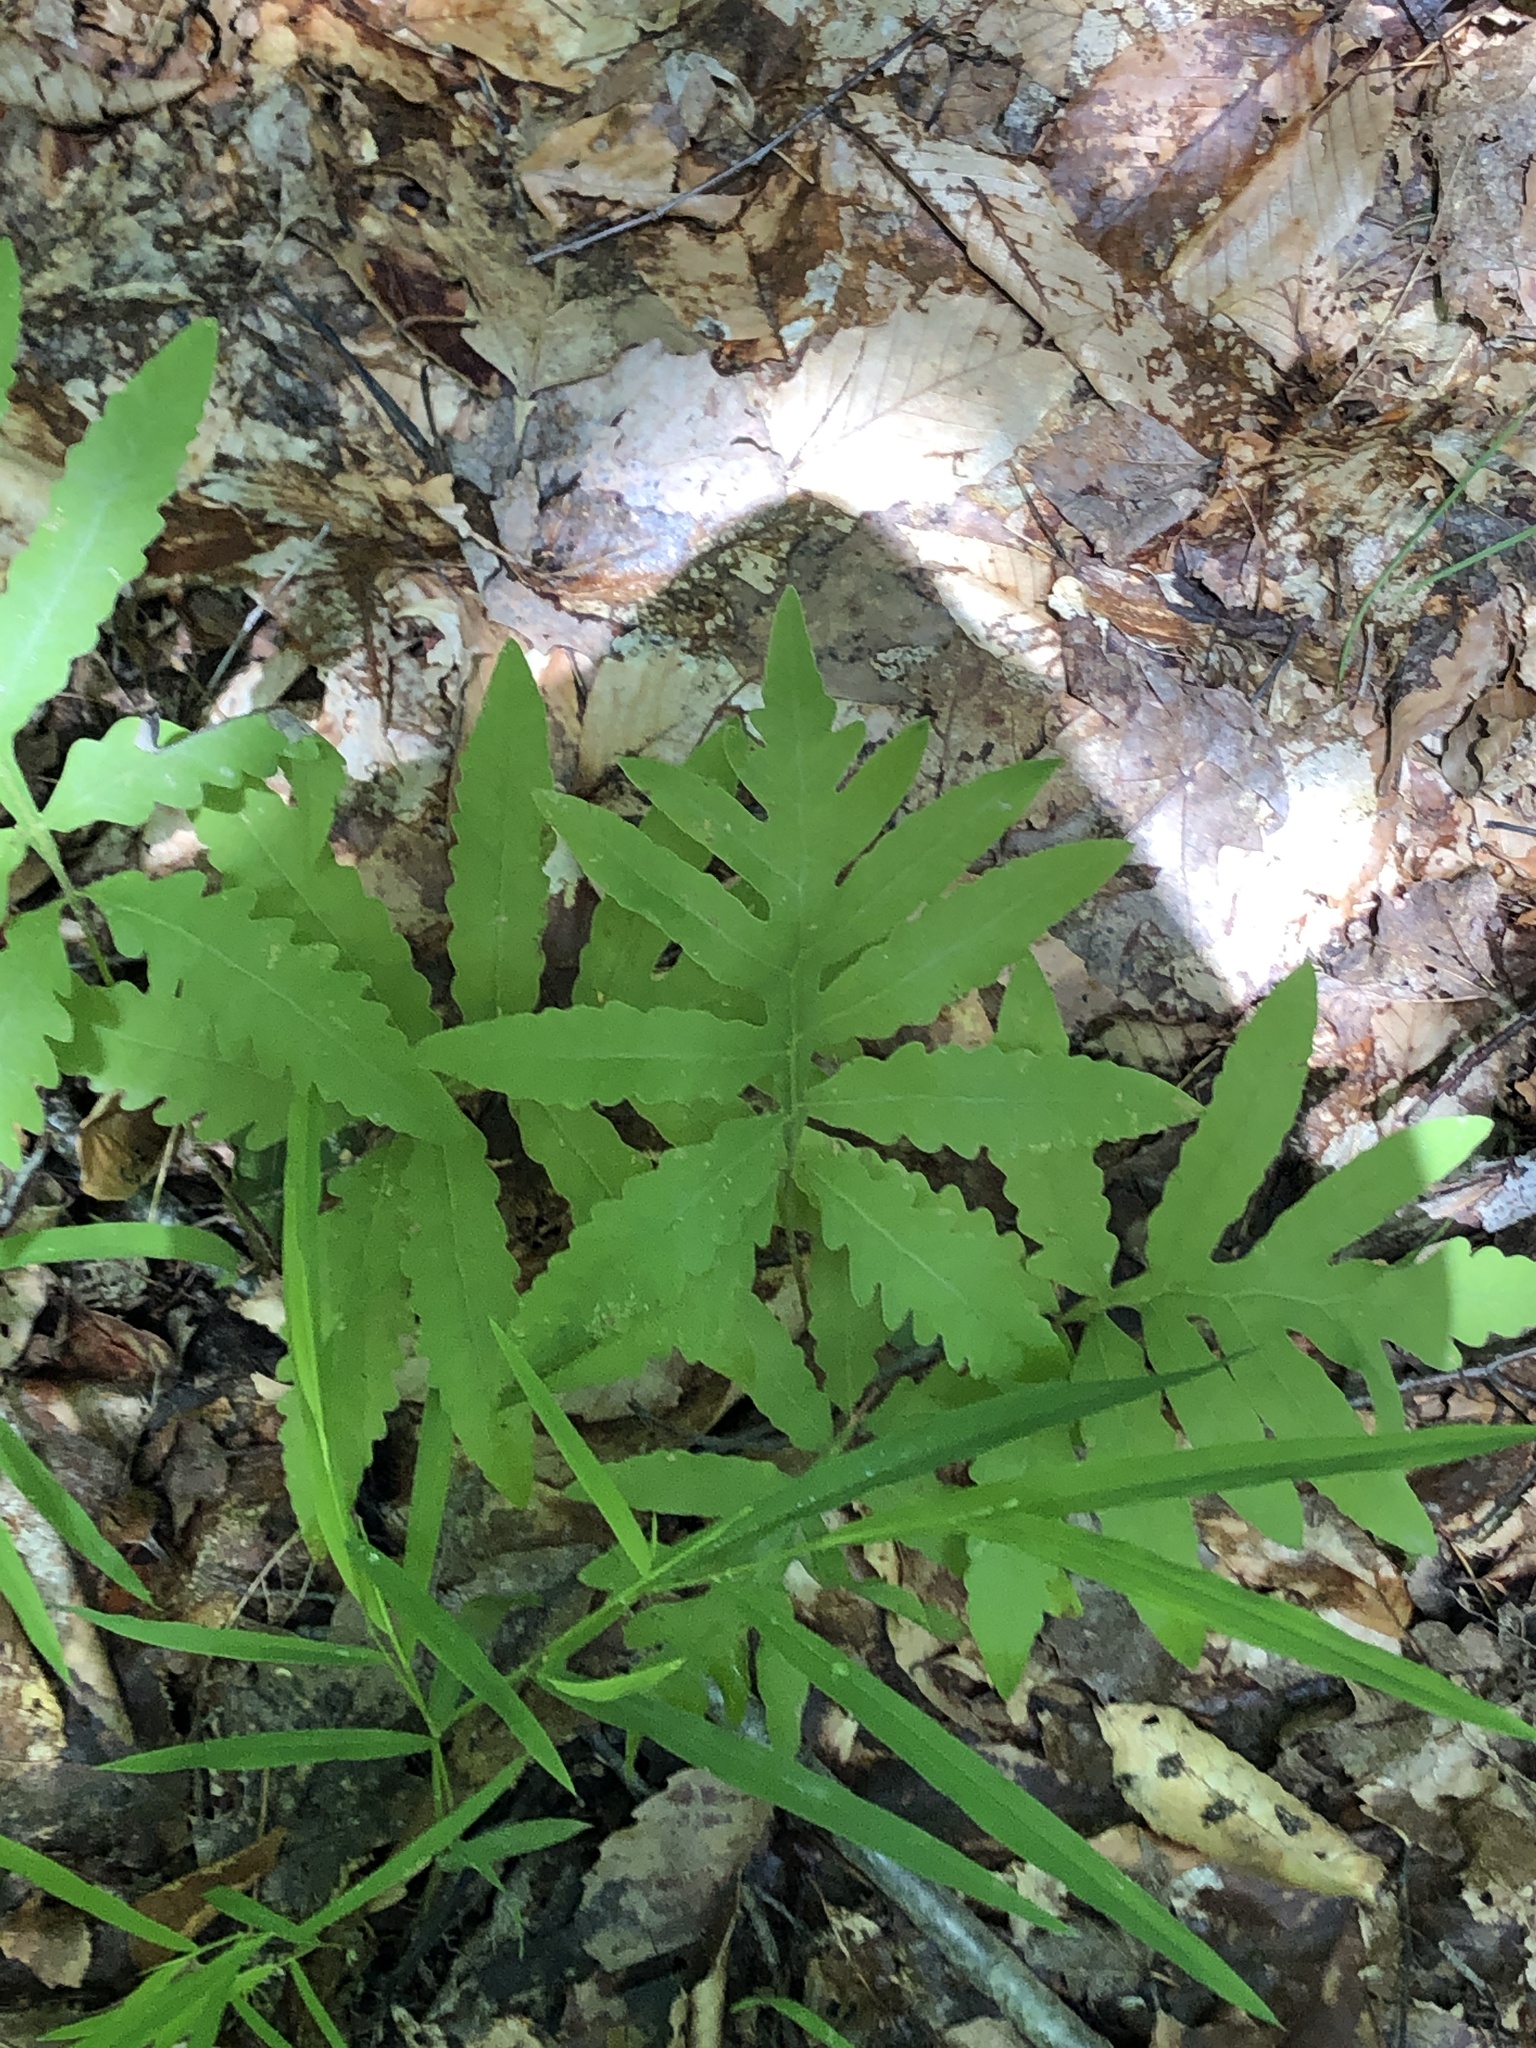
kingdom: Plantae
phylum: Tracheophyta
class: Polypodiopsida
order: Polypodiales
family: Onocleaceae
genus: Onoclea
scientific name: Onoclea sensibilis
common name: Sensitive fern
